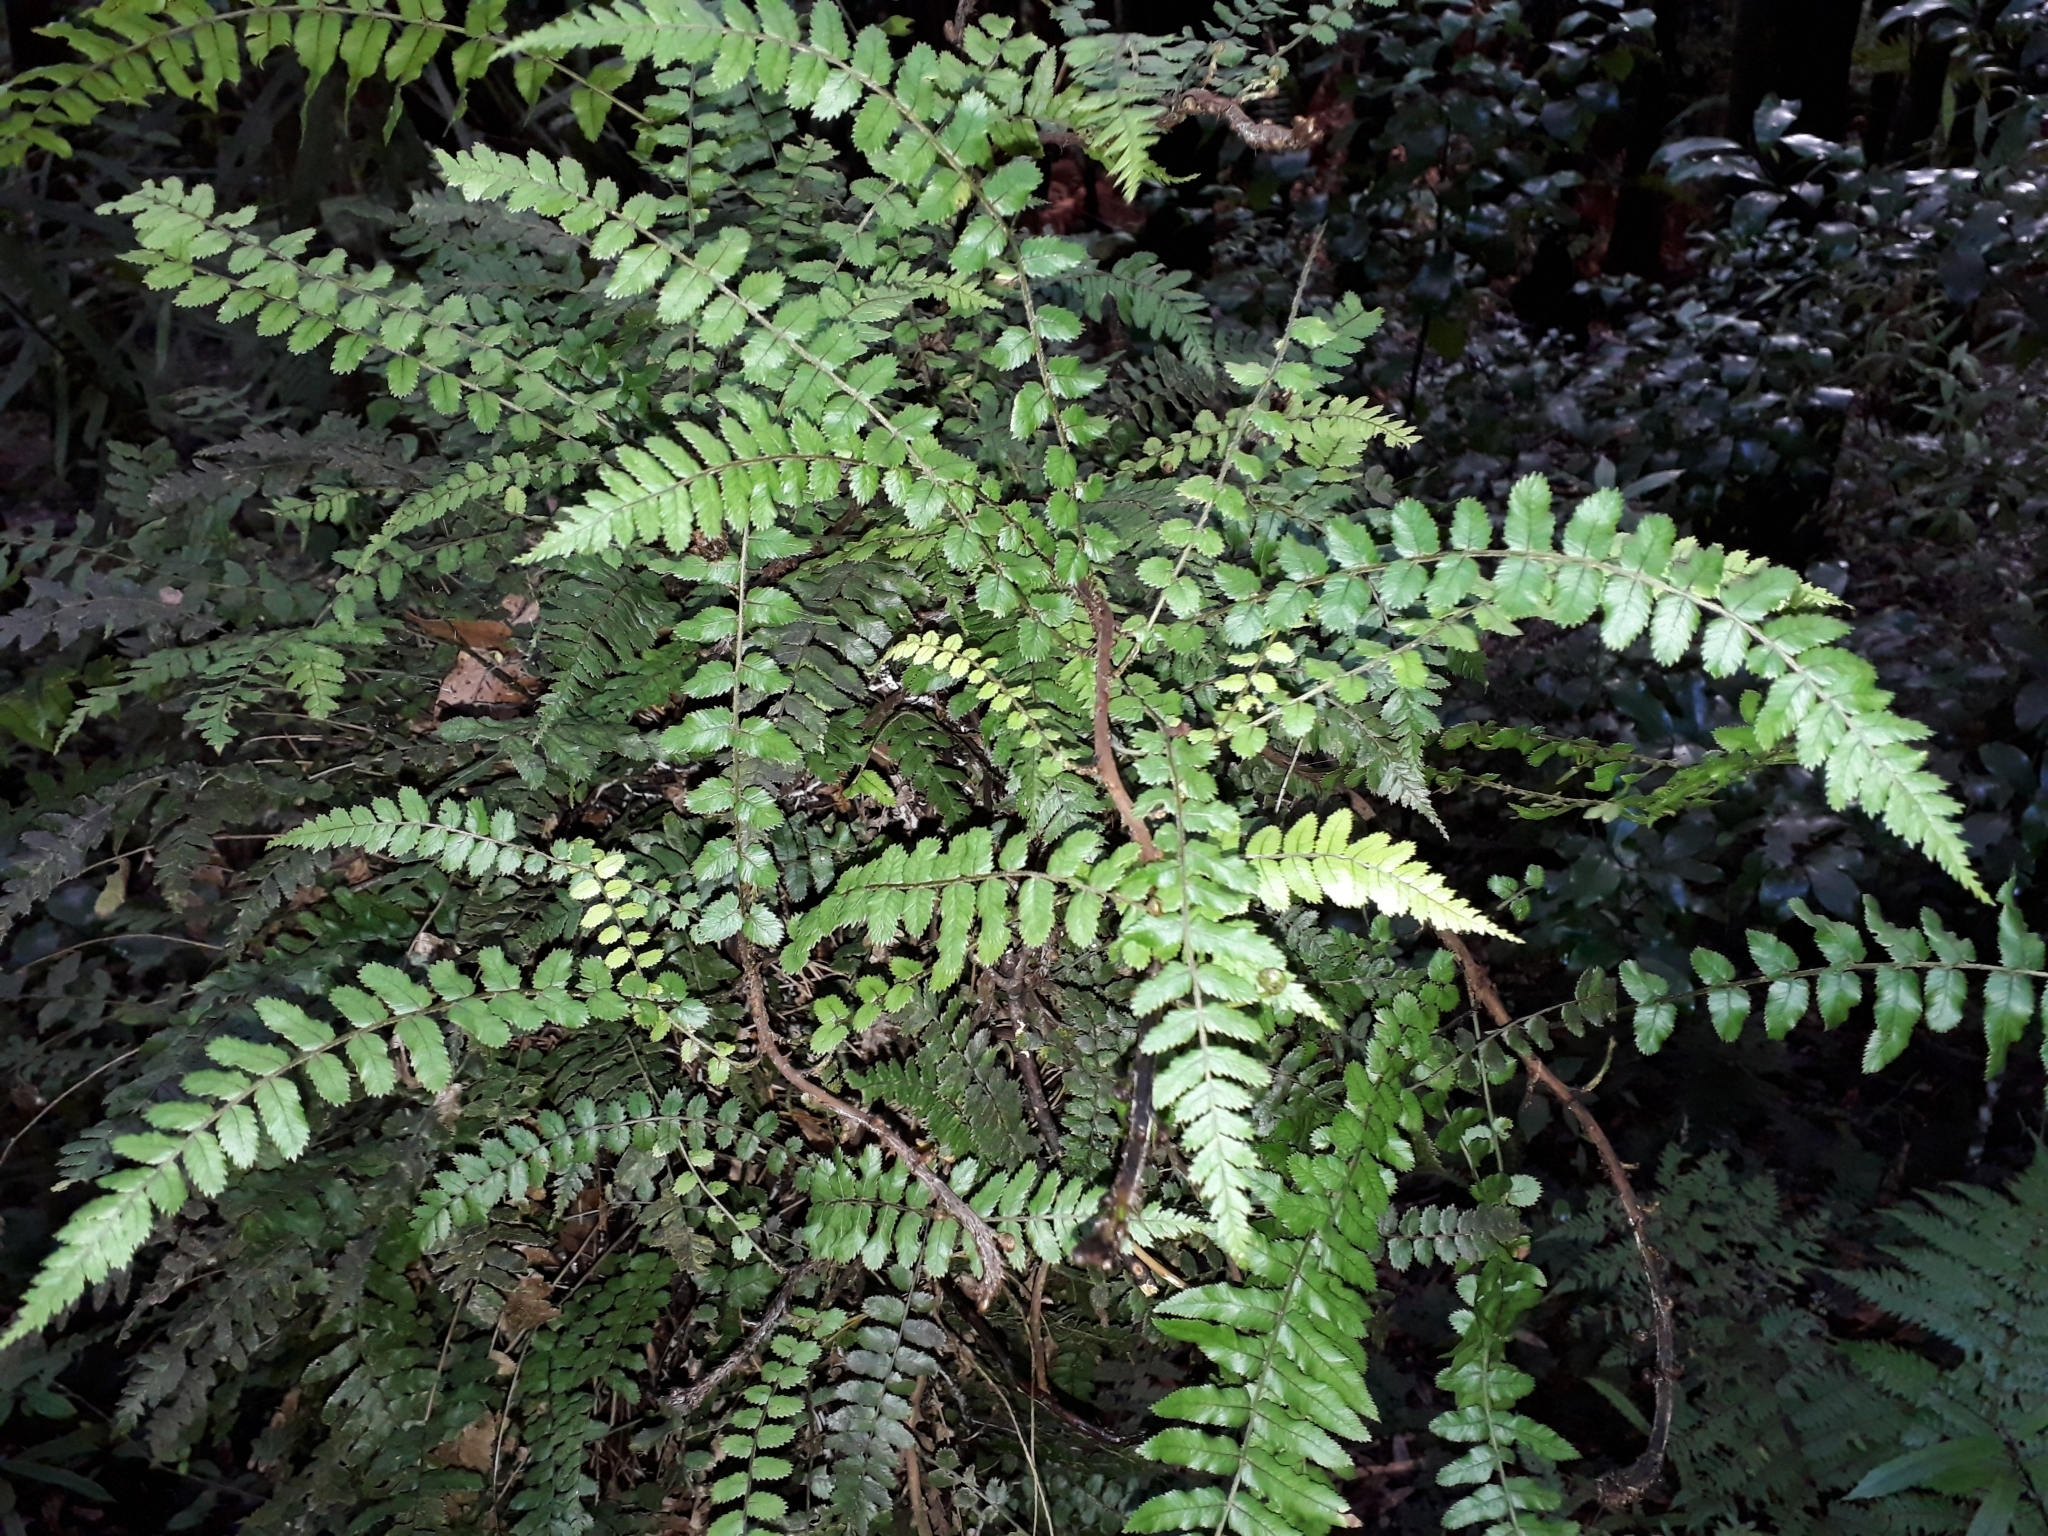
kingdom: Plantae
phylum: Tracheophyta
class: Polypodiopsida
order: Polypodiales
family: Blechnaceae
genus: Icarus
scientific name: Icarus filiformis
